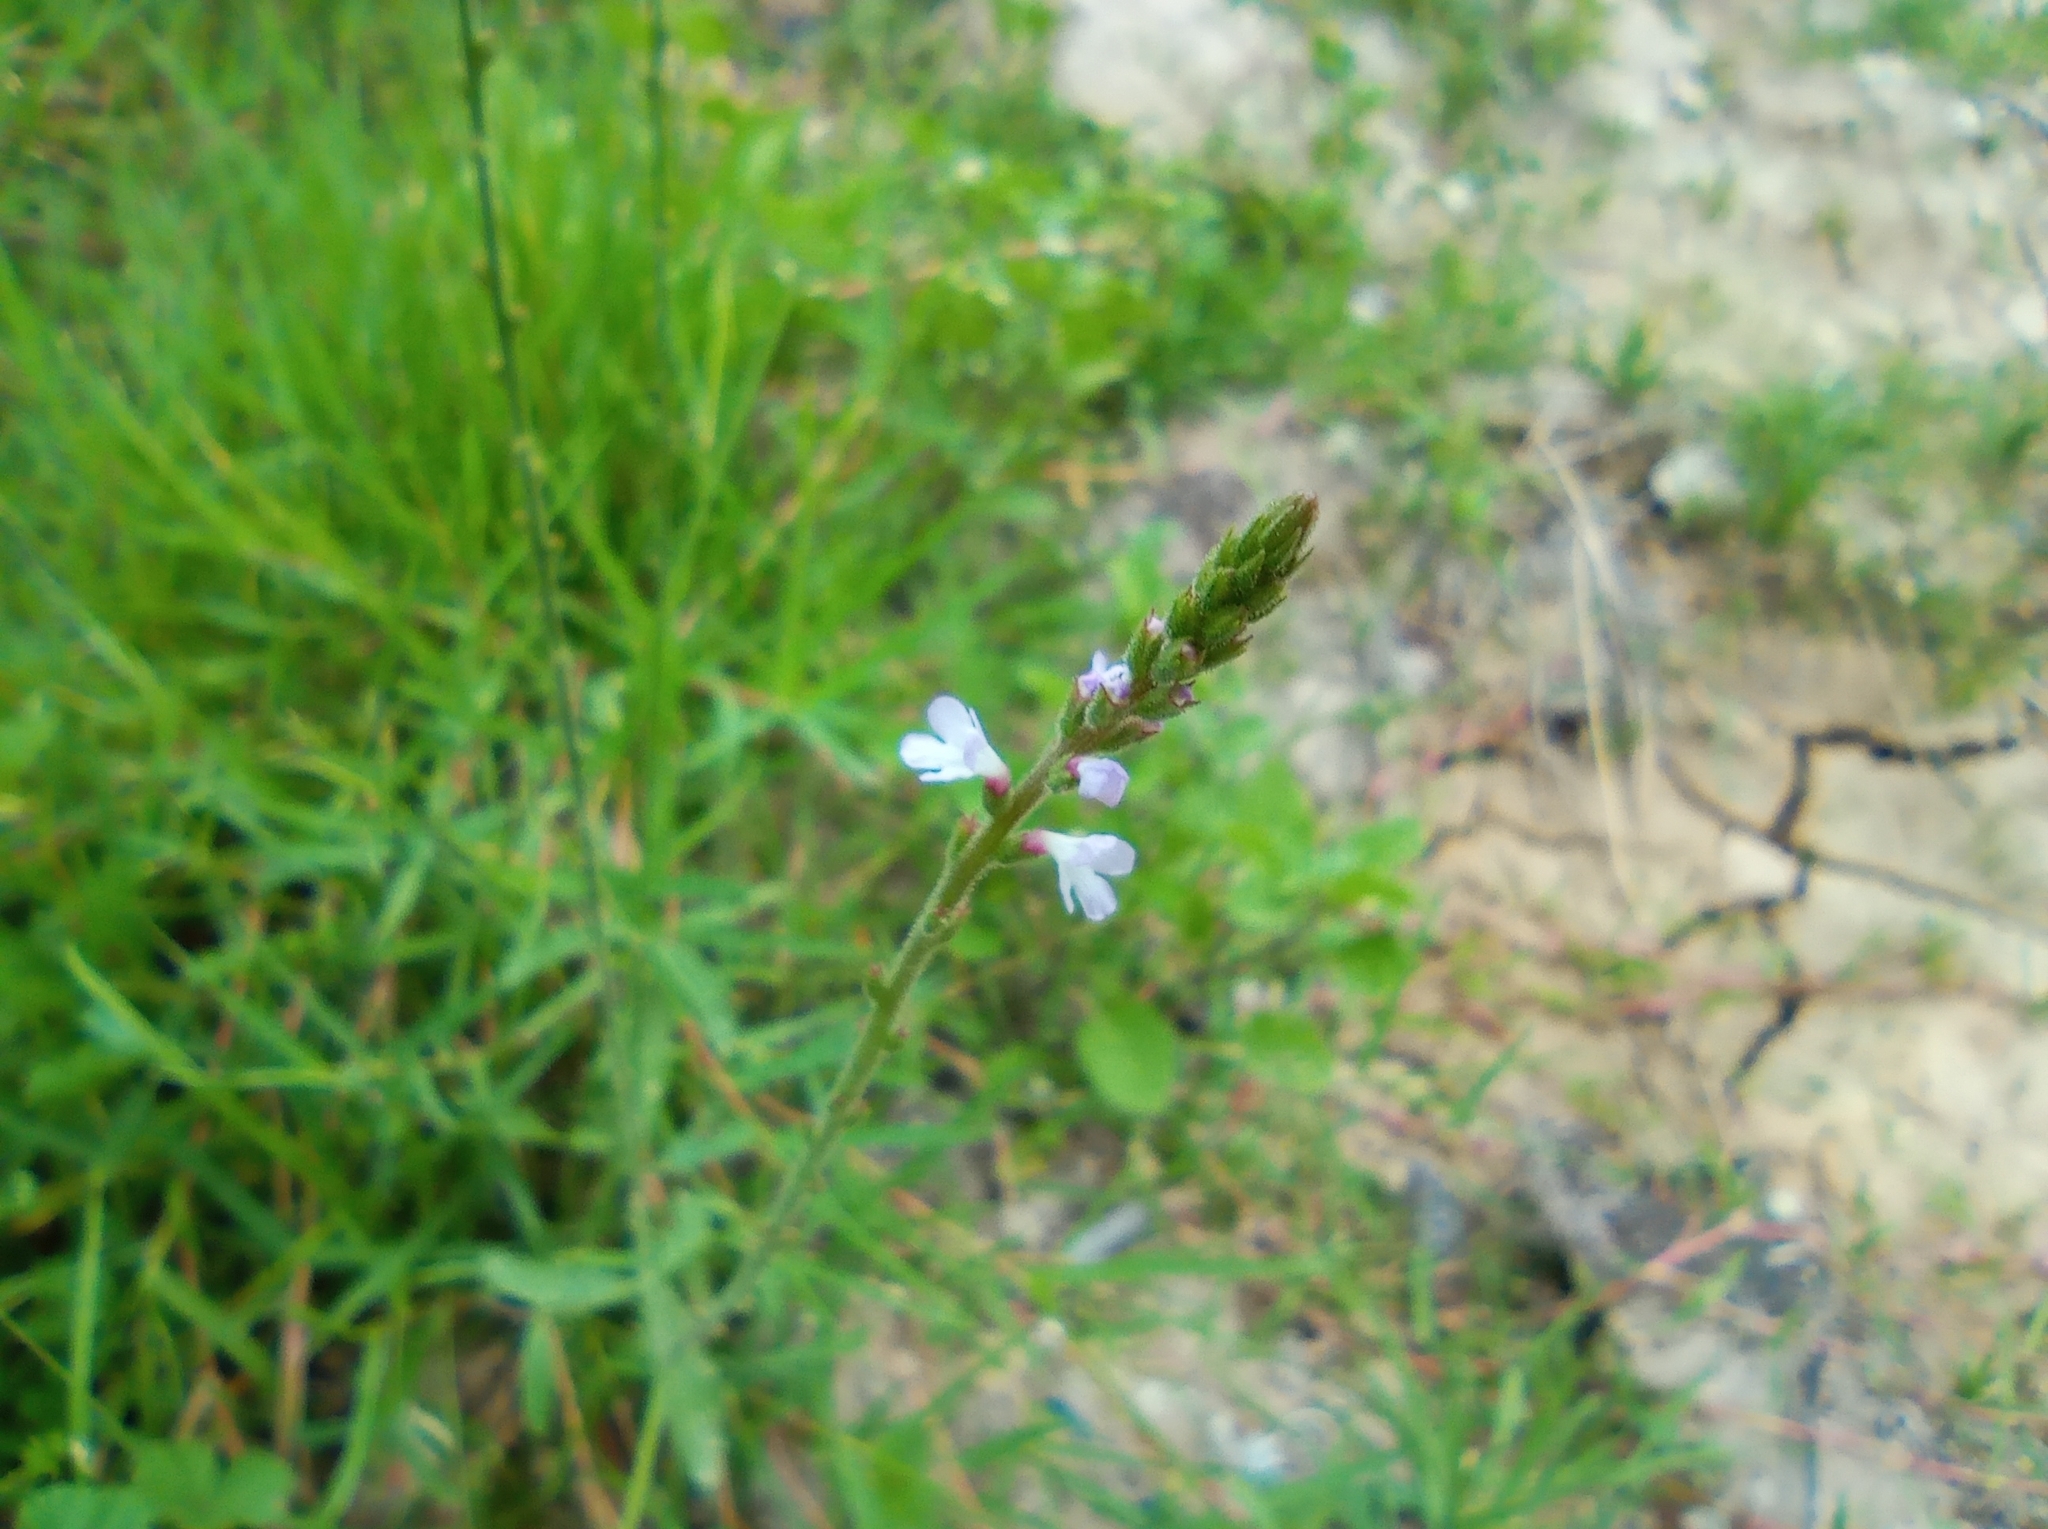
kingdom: Plantae
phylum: Tracheophyta
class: Magnoliopsida
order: Lamiales
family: Verbenaceae
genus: Verbena
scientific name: Verbena officinalis
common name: Vervain
